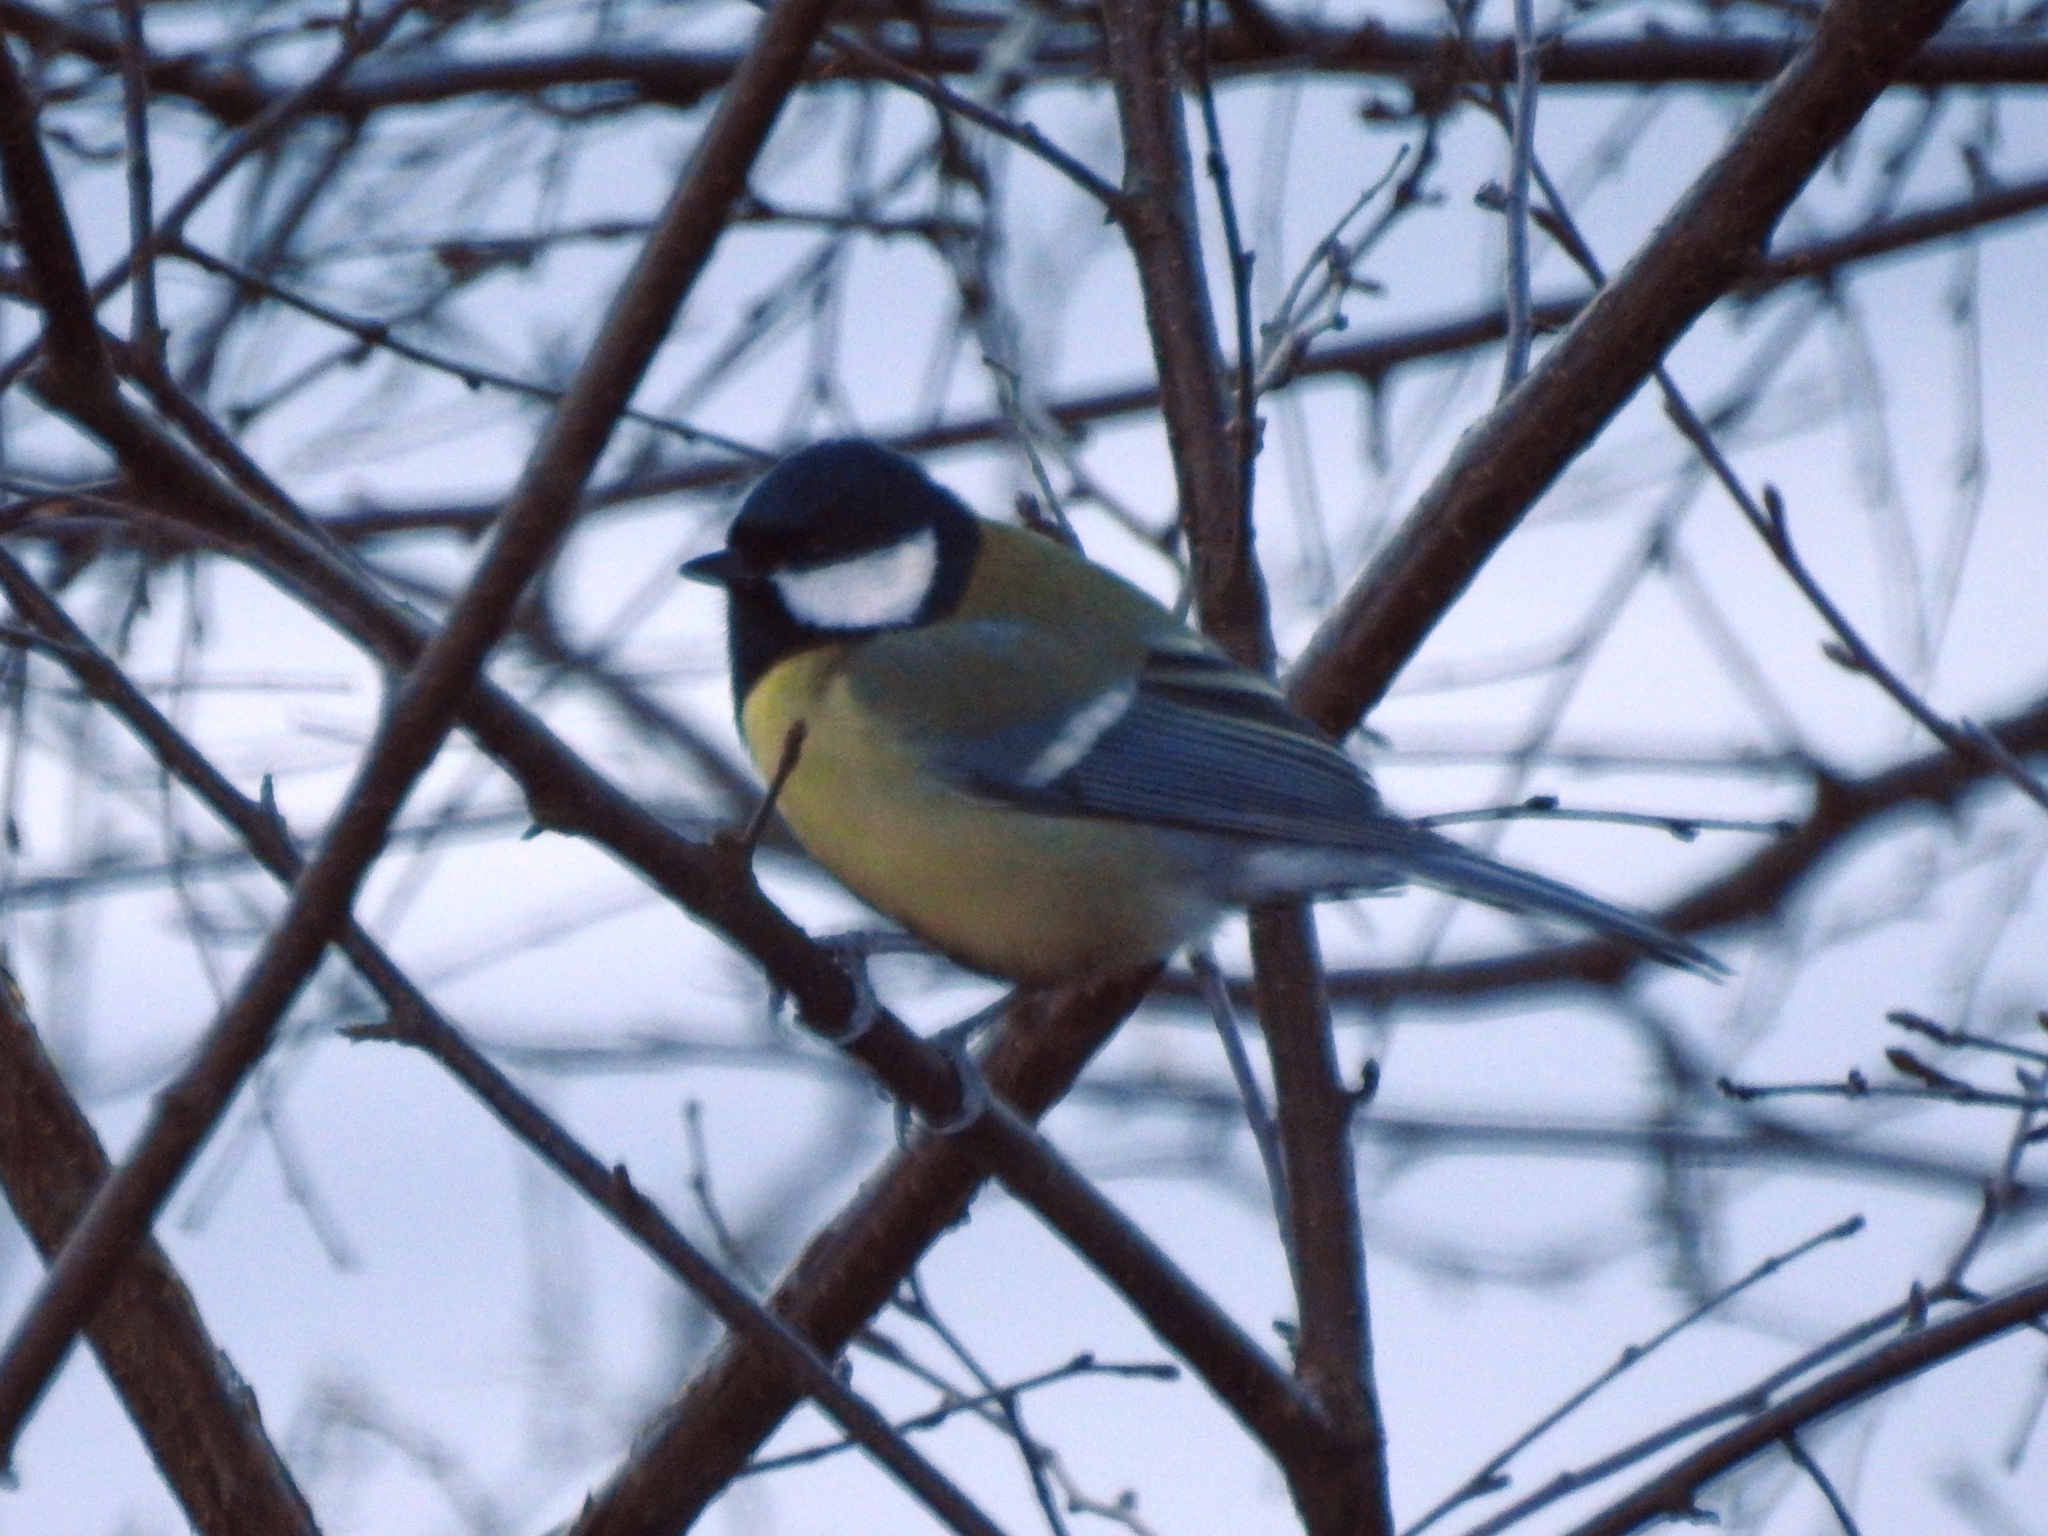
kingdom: Animalia
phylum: Chordata
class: Aves
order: Passeriformes
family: Paridae
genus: Parus
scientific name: Parus major
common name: Great tit
